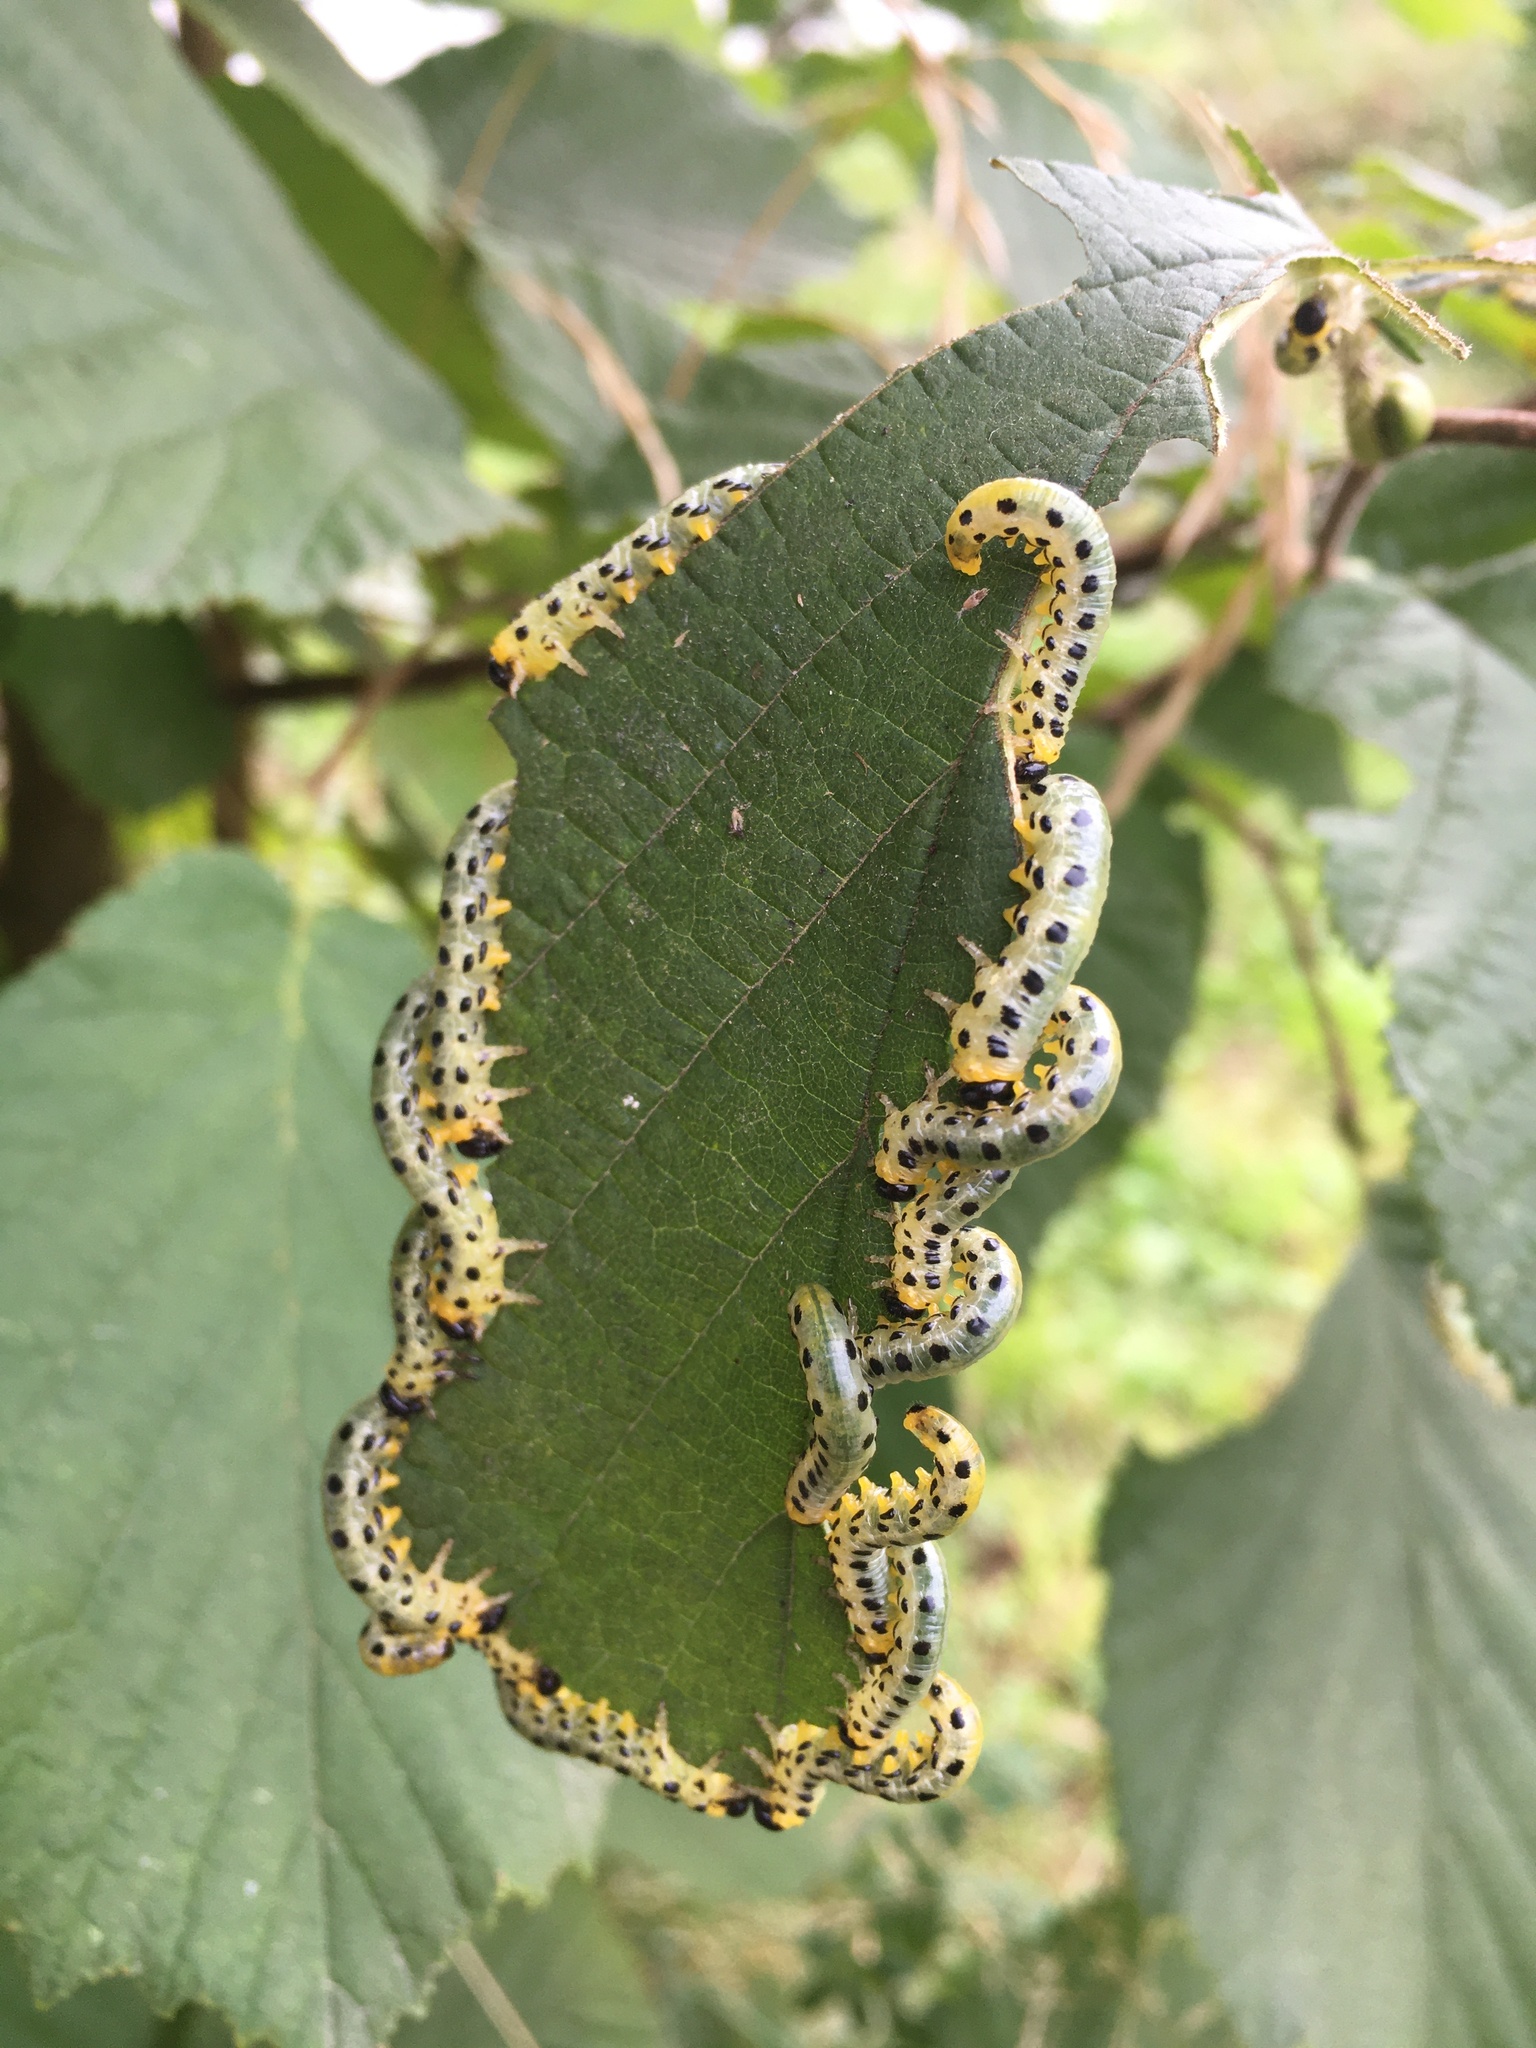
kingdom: Animalia
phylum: Arthropoda
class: Insecta
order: Hymenoptera
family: Tenthredinidae
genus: Craesus
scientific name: Craesus septentrionalis
